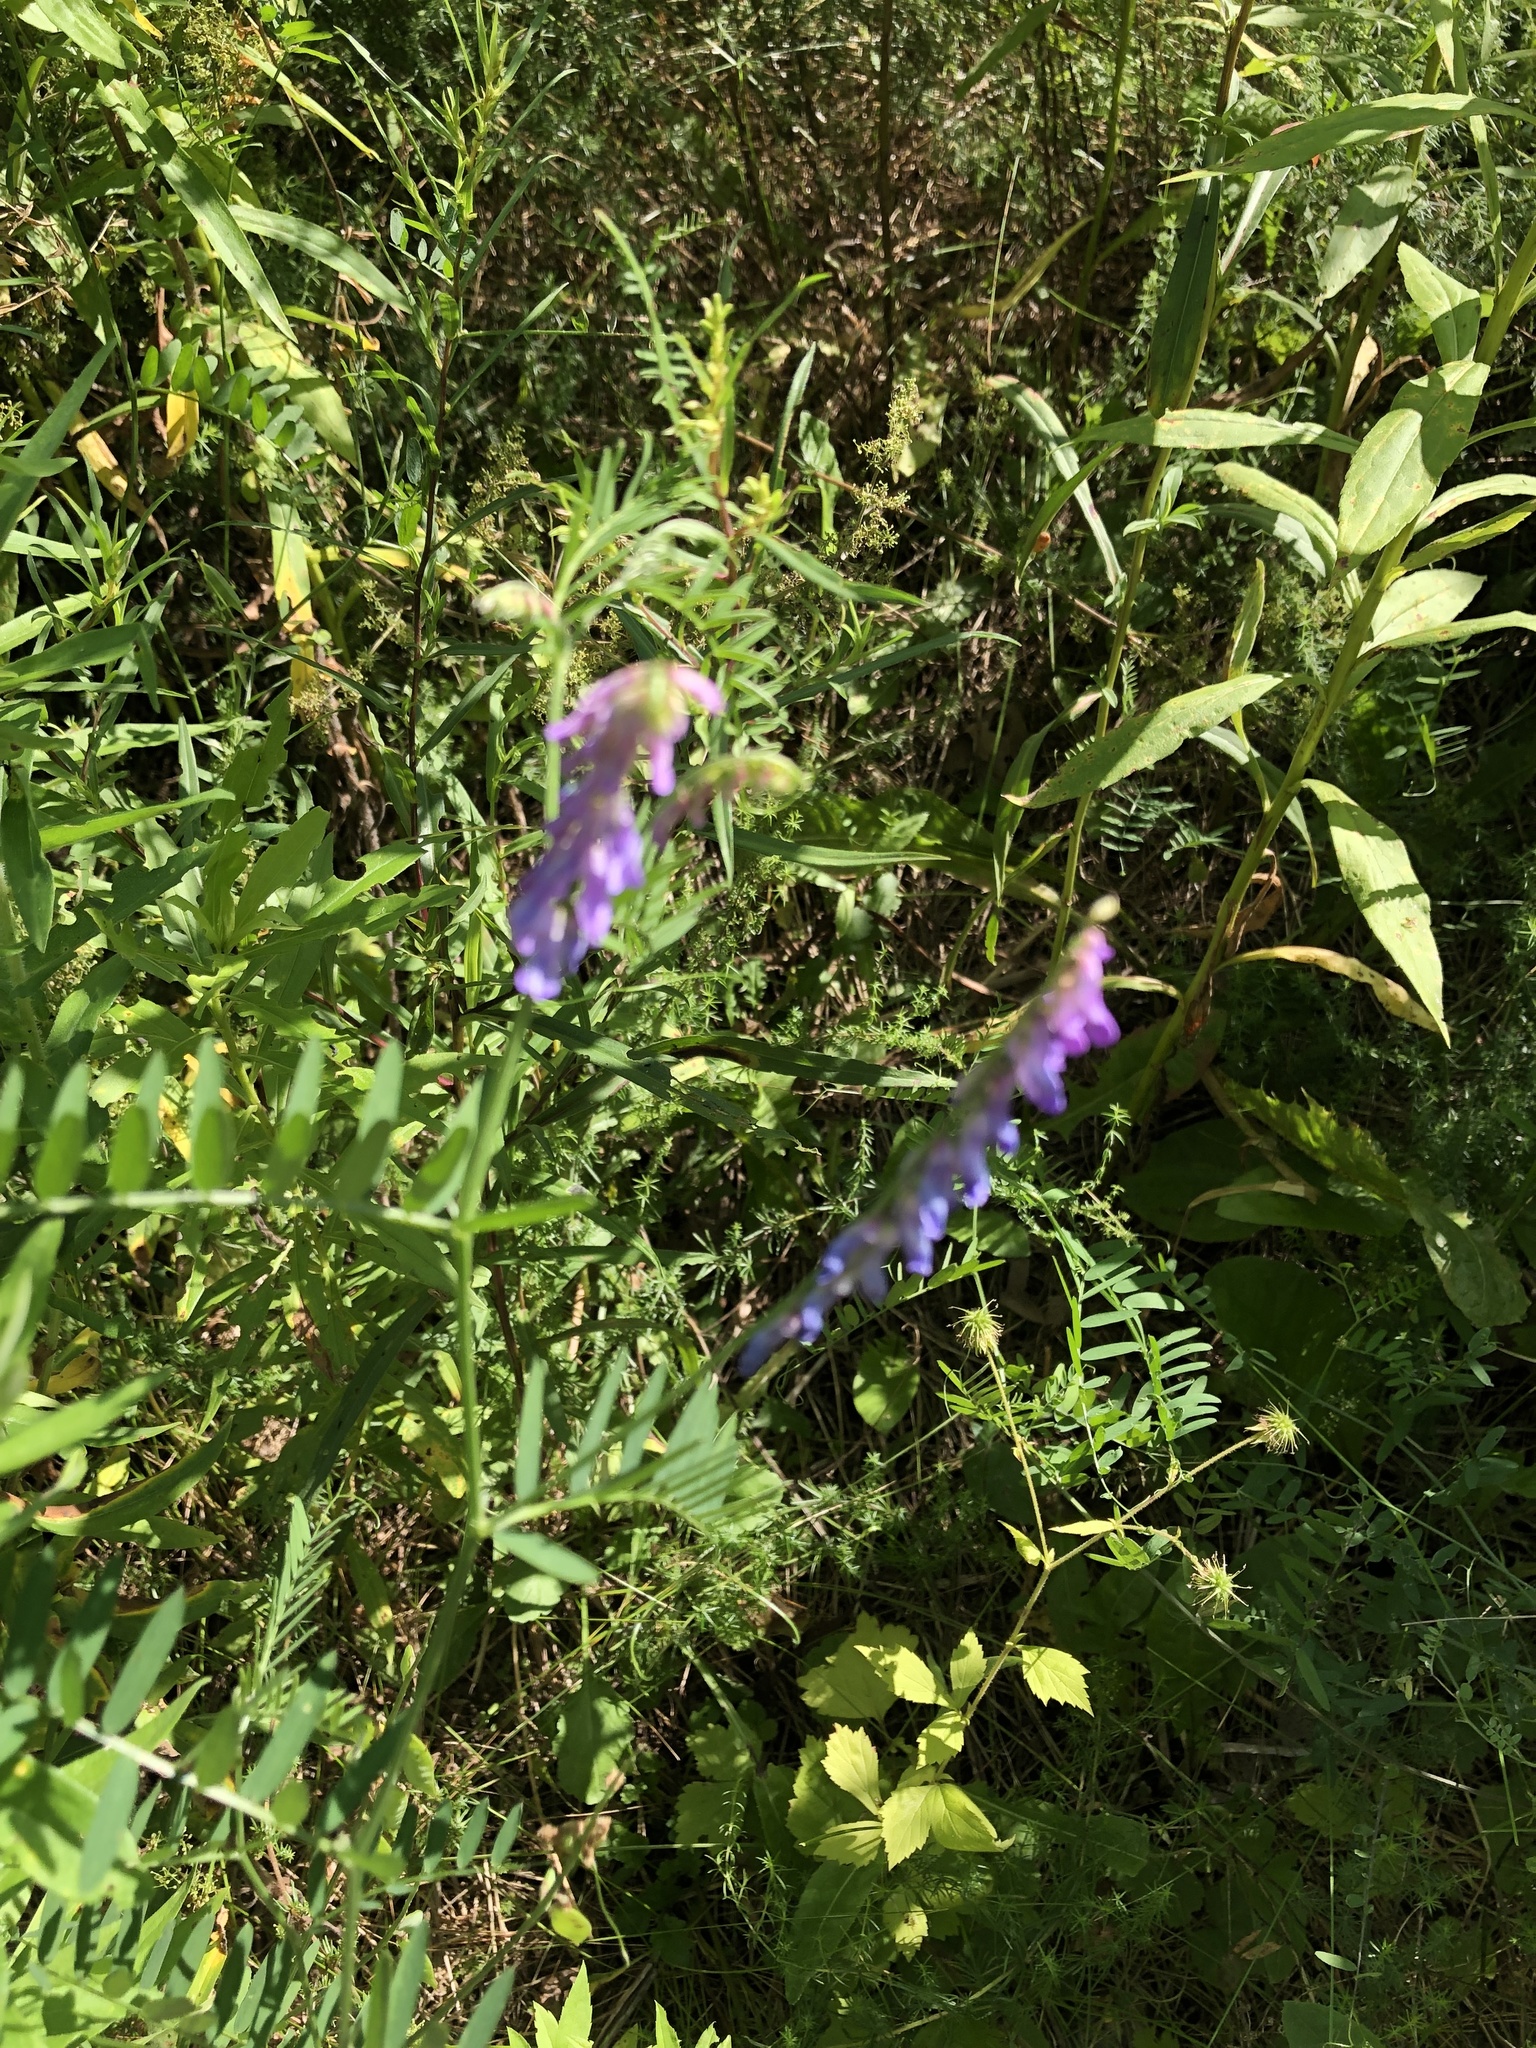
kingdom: Plantae
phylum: Tracheophyta
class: Magnoliopsida
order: Fabales
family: Fabaceae
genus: Vicia
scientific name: Vicia cracca
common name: Bird vetch
